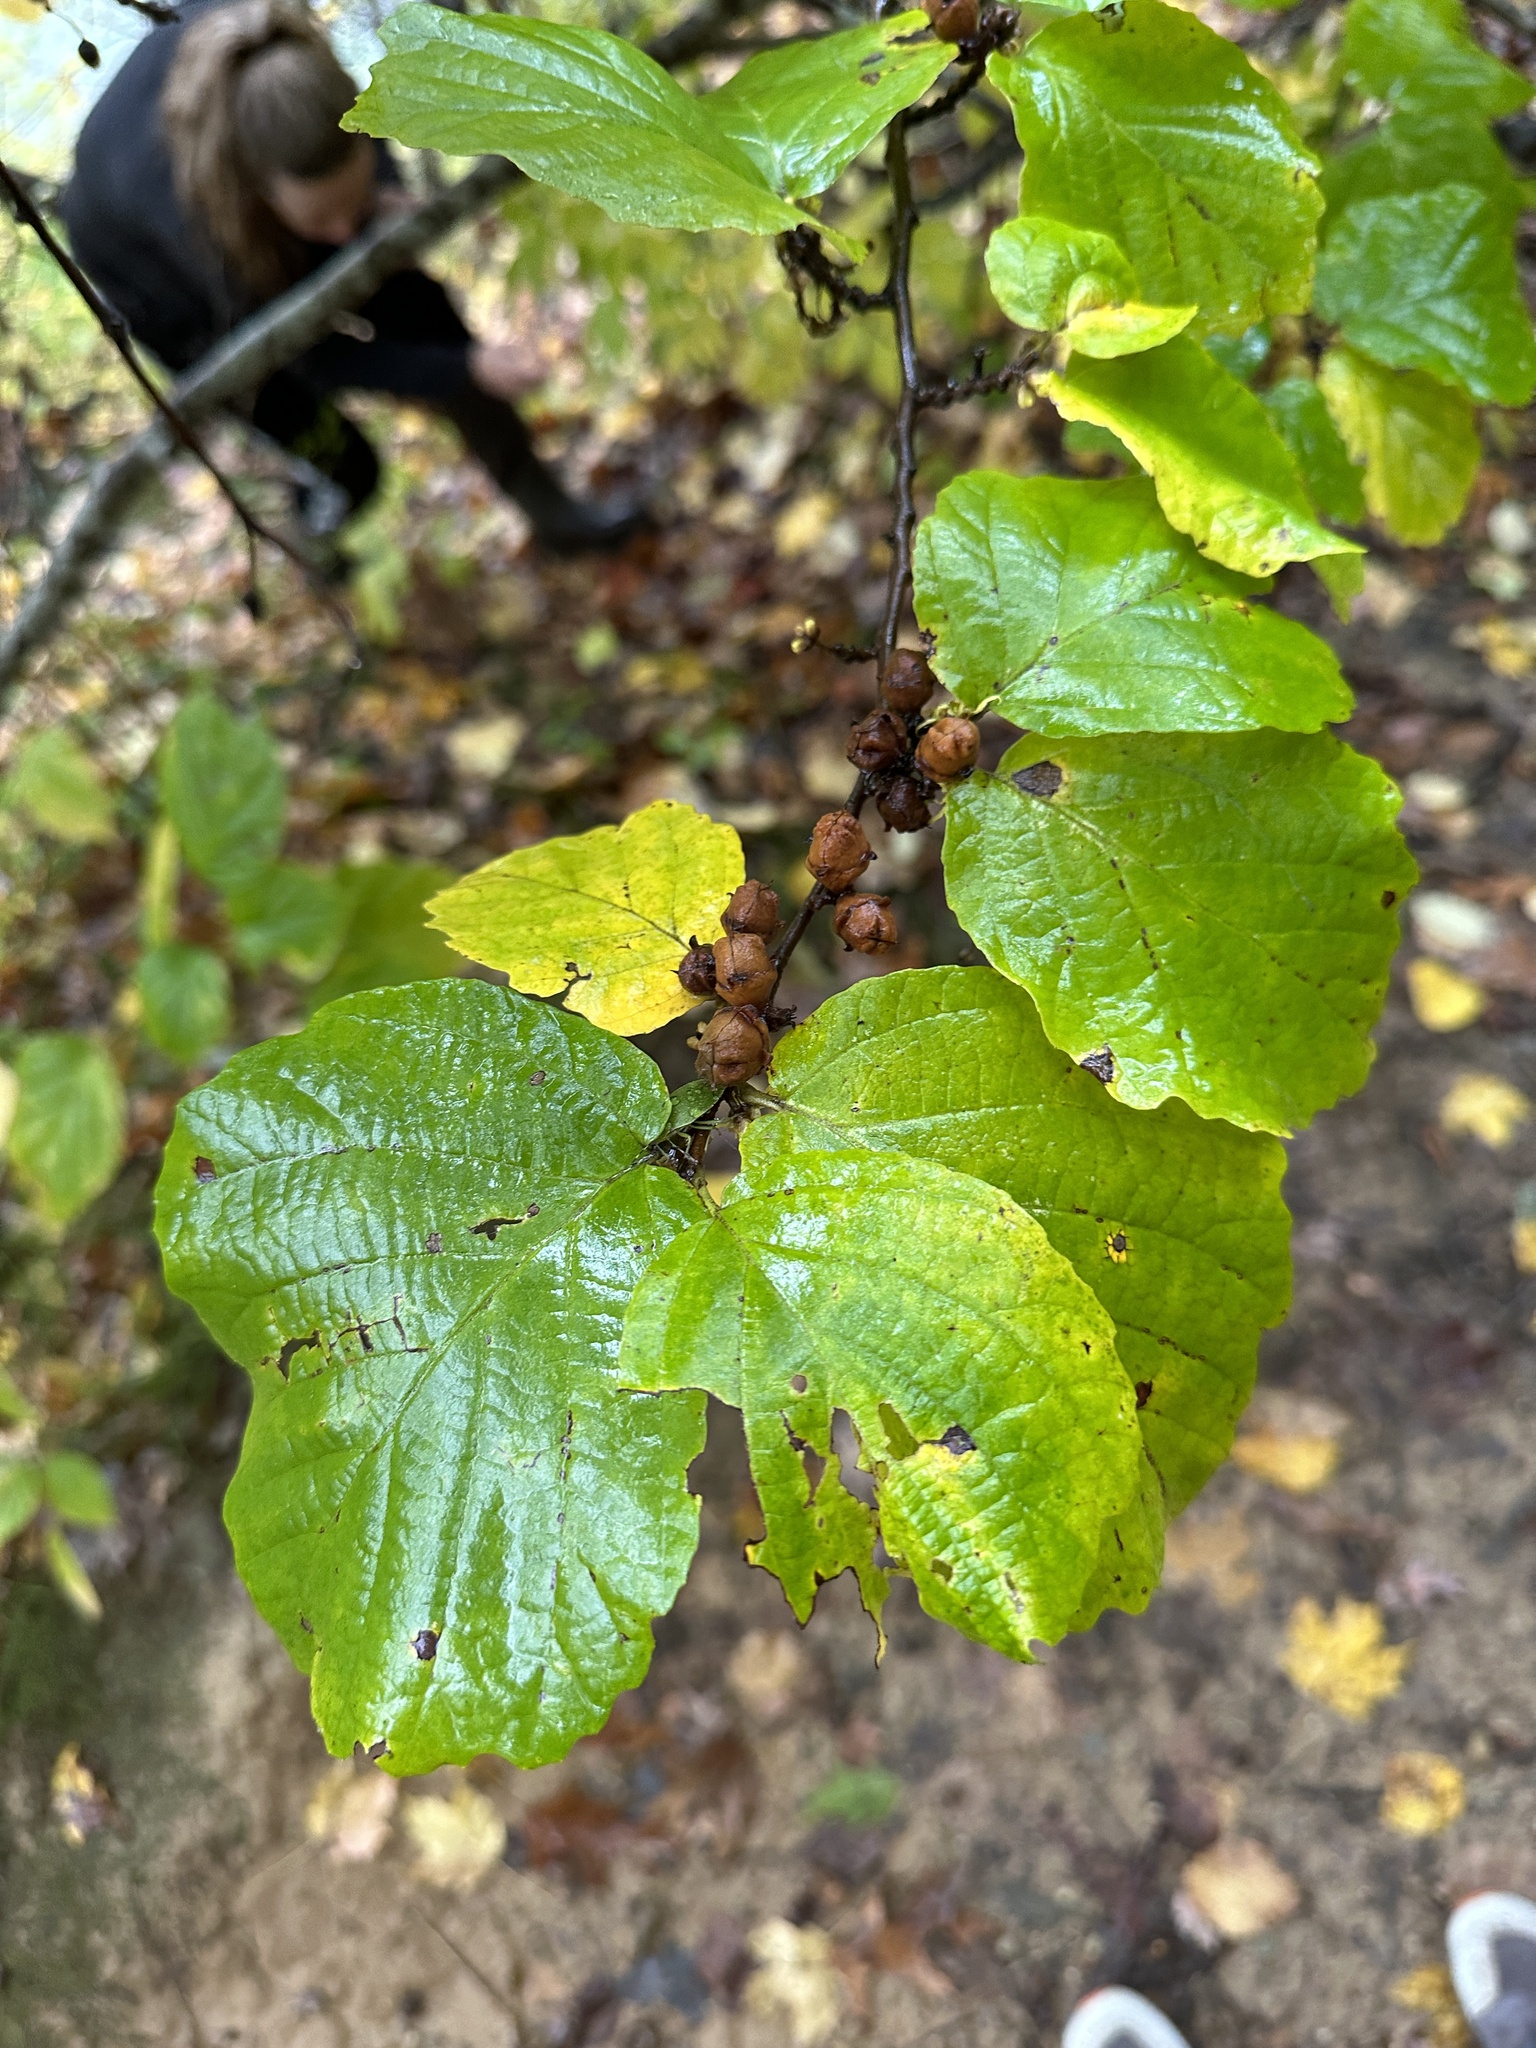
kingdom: Plantae
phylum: Tracheophyta
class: Magnoliopsida
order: Saxifragales
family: Hamamelidaceae
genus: Hamamelis
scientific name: Hamamelis virginiana
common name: Witch-hazel
